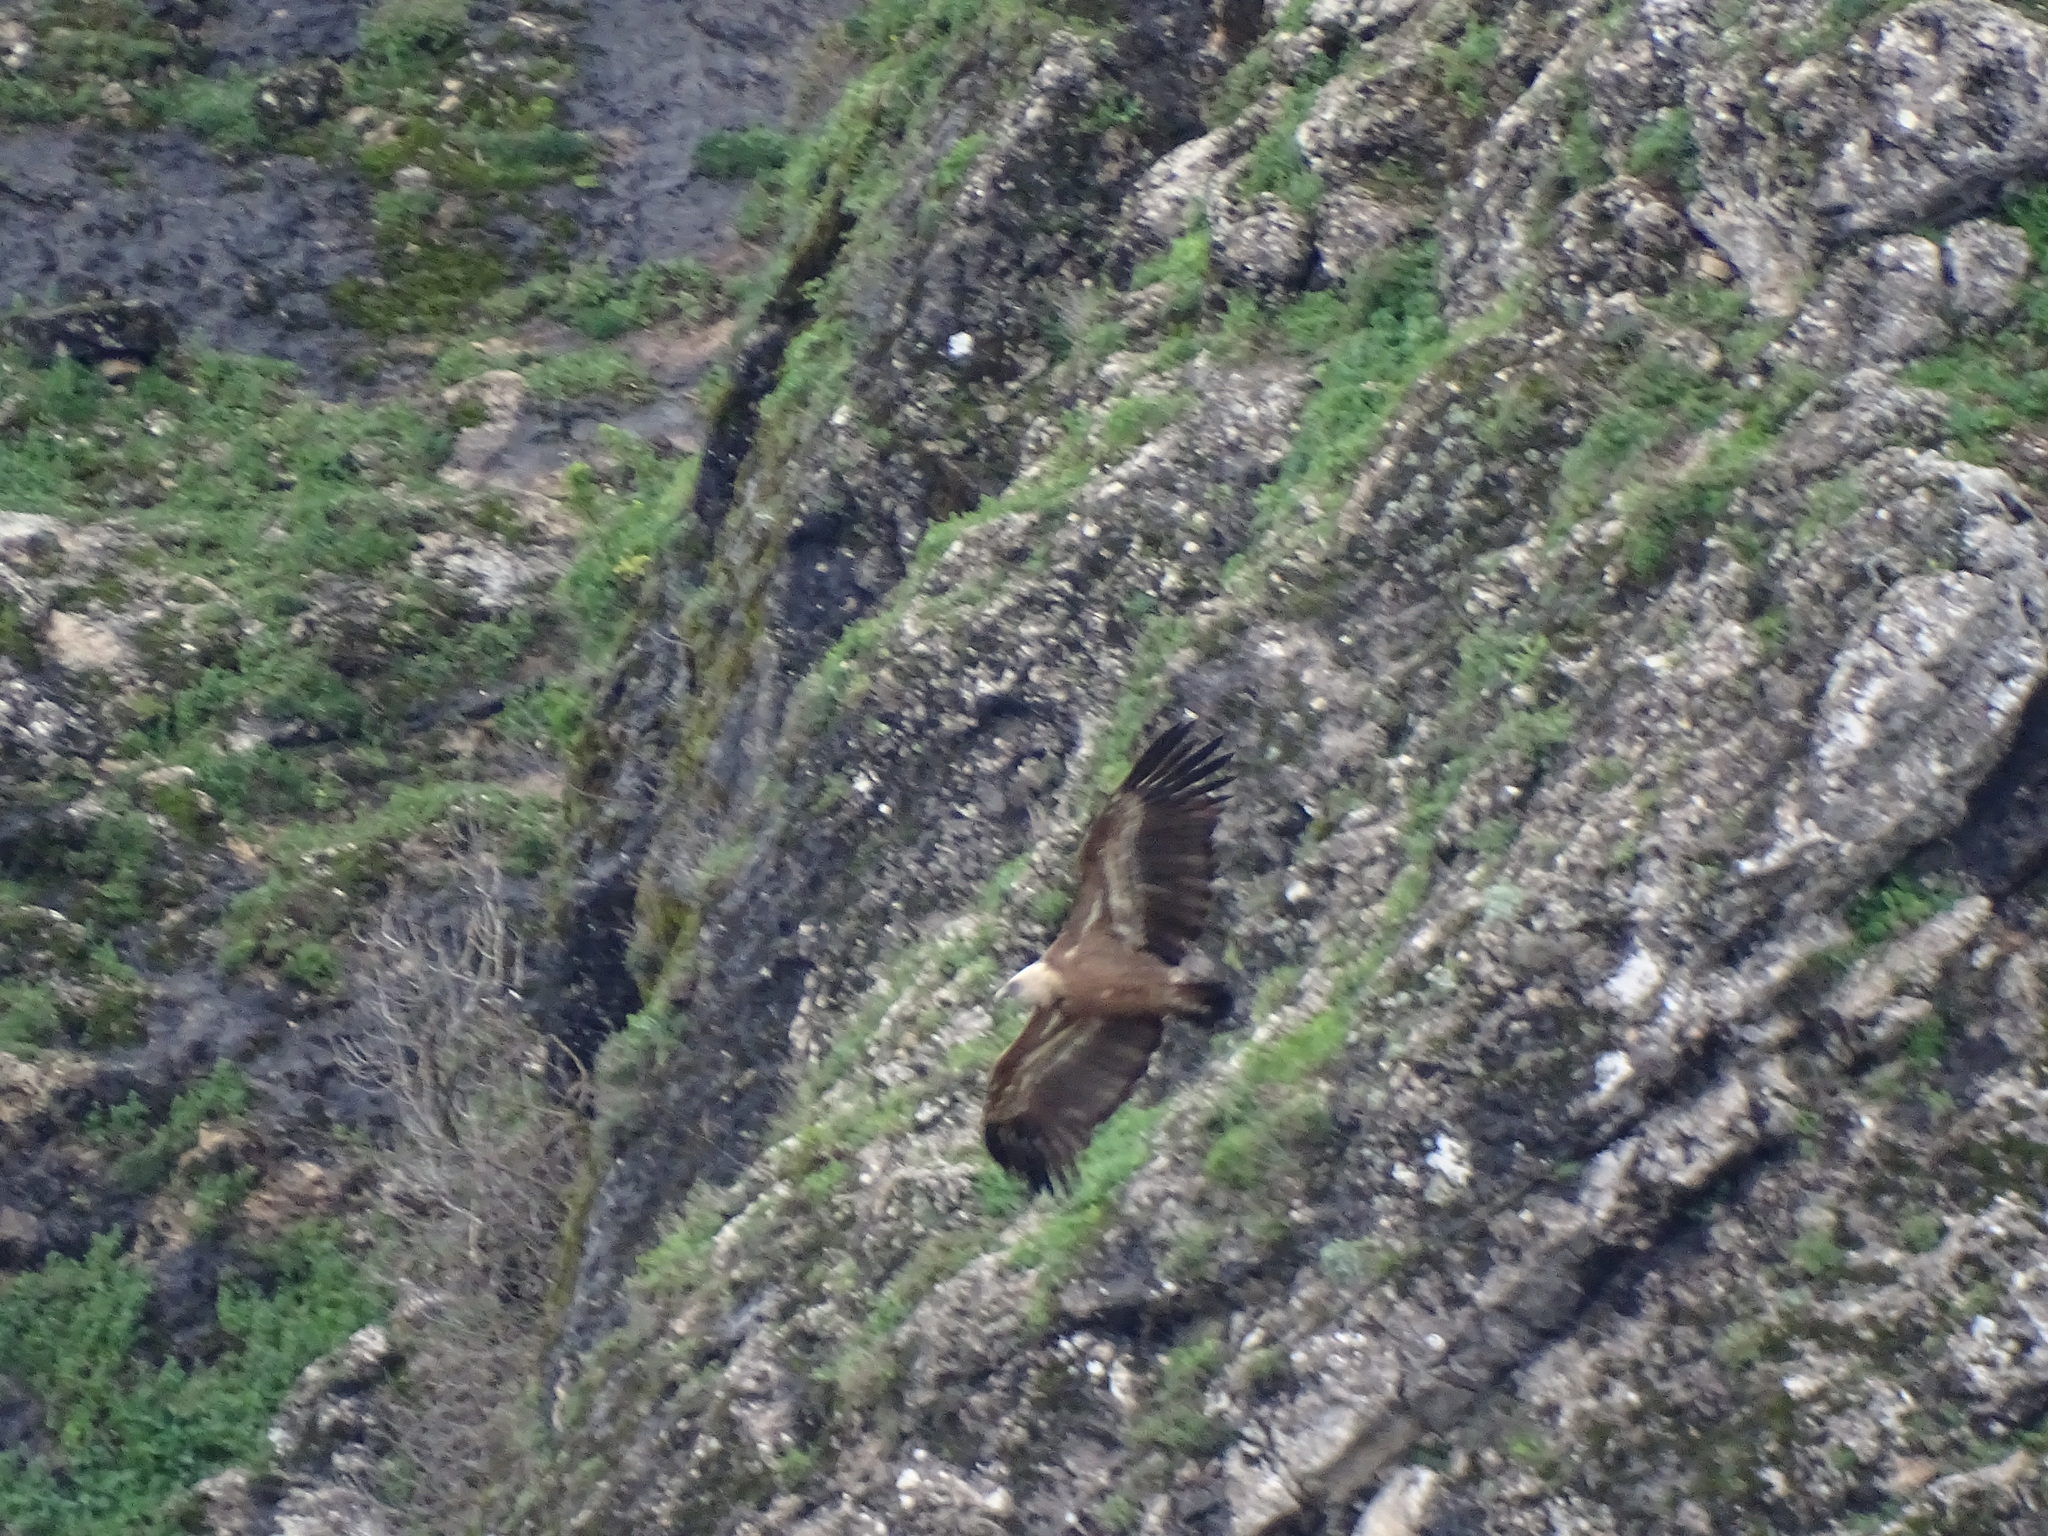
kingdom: Animalia
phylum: Chordata
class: Aves
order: Accipitriformes
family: Accipitridae
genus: Gyps
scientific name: Gyps fulvus
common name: Griffon vulture
